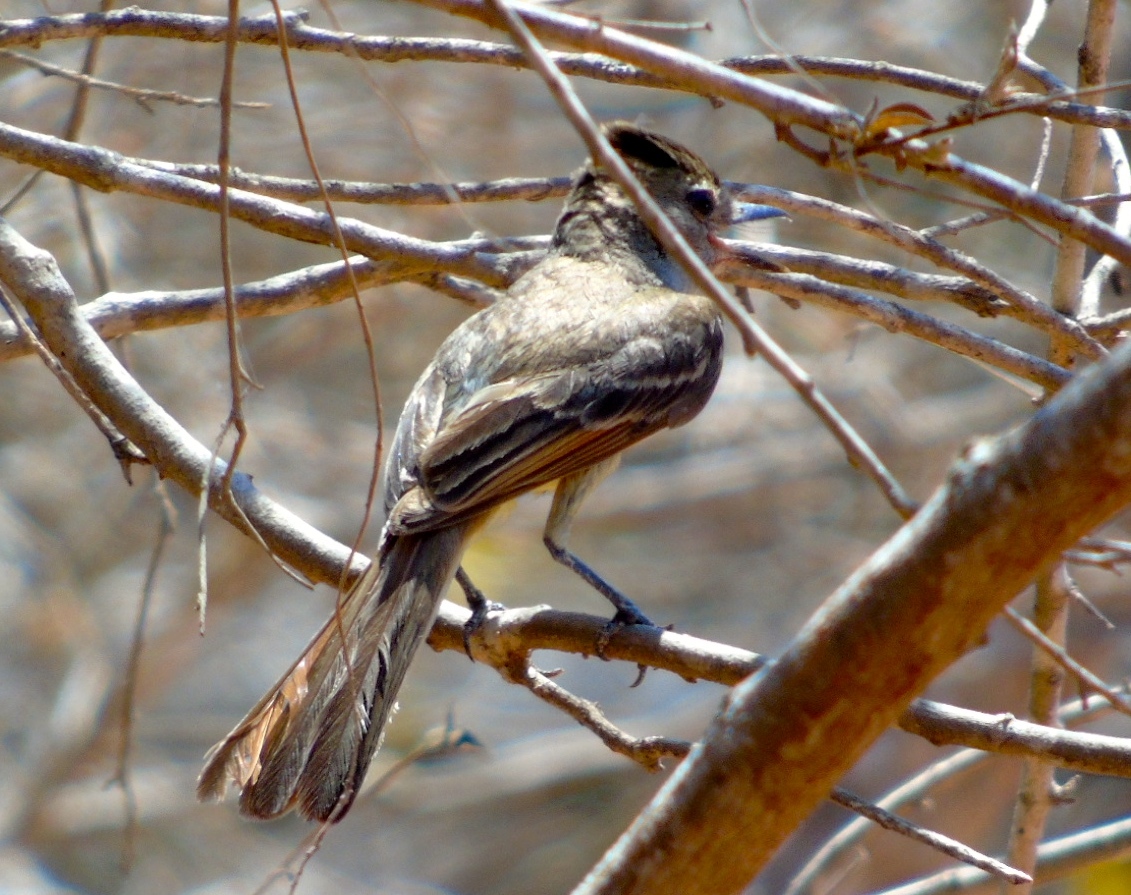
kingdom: Animalia
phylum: Chordata
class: Aves
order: Passeriformes
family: Tyrannidae
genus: Myiarchus
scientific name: Myiarchus
